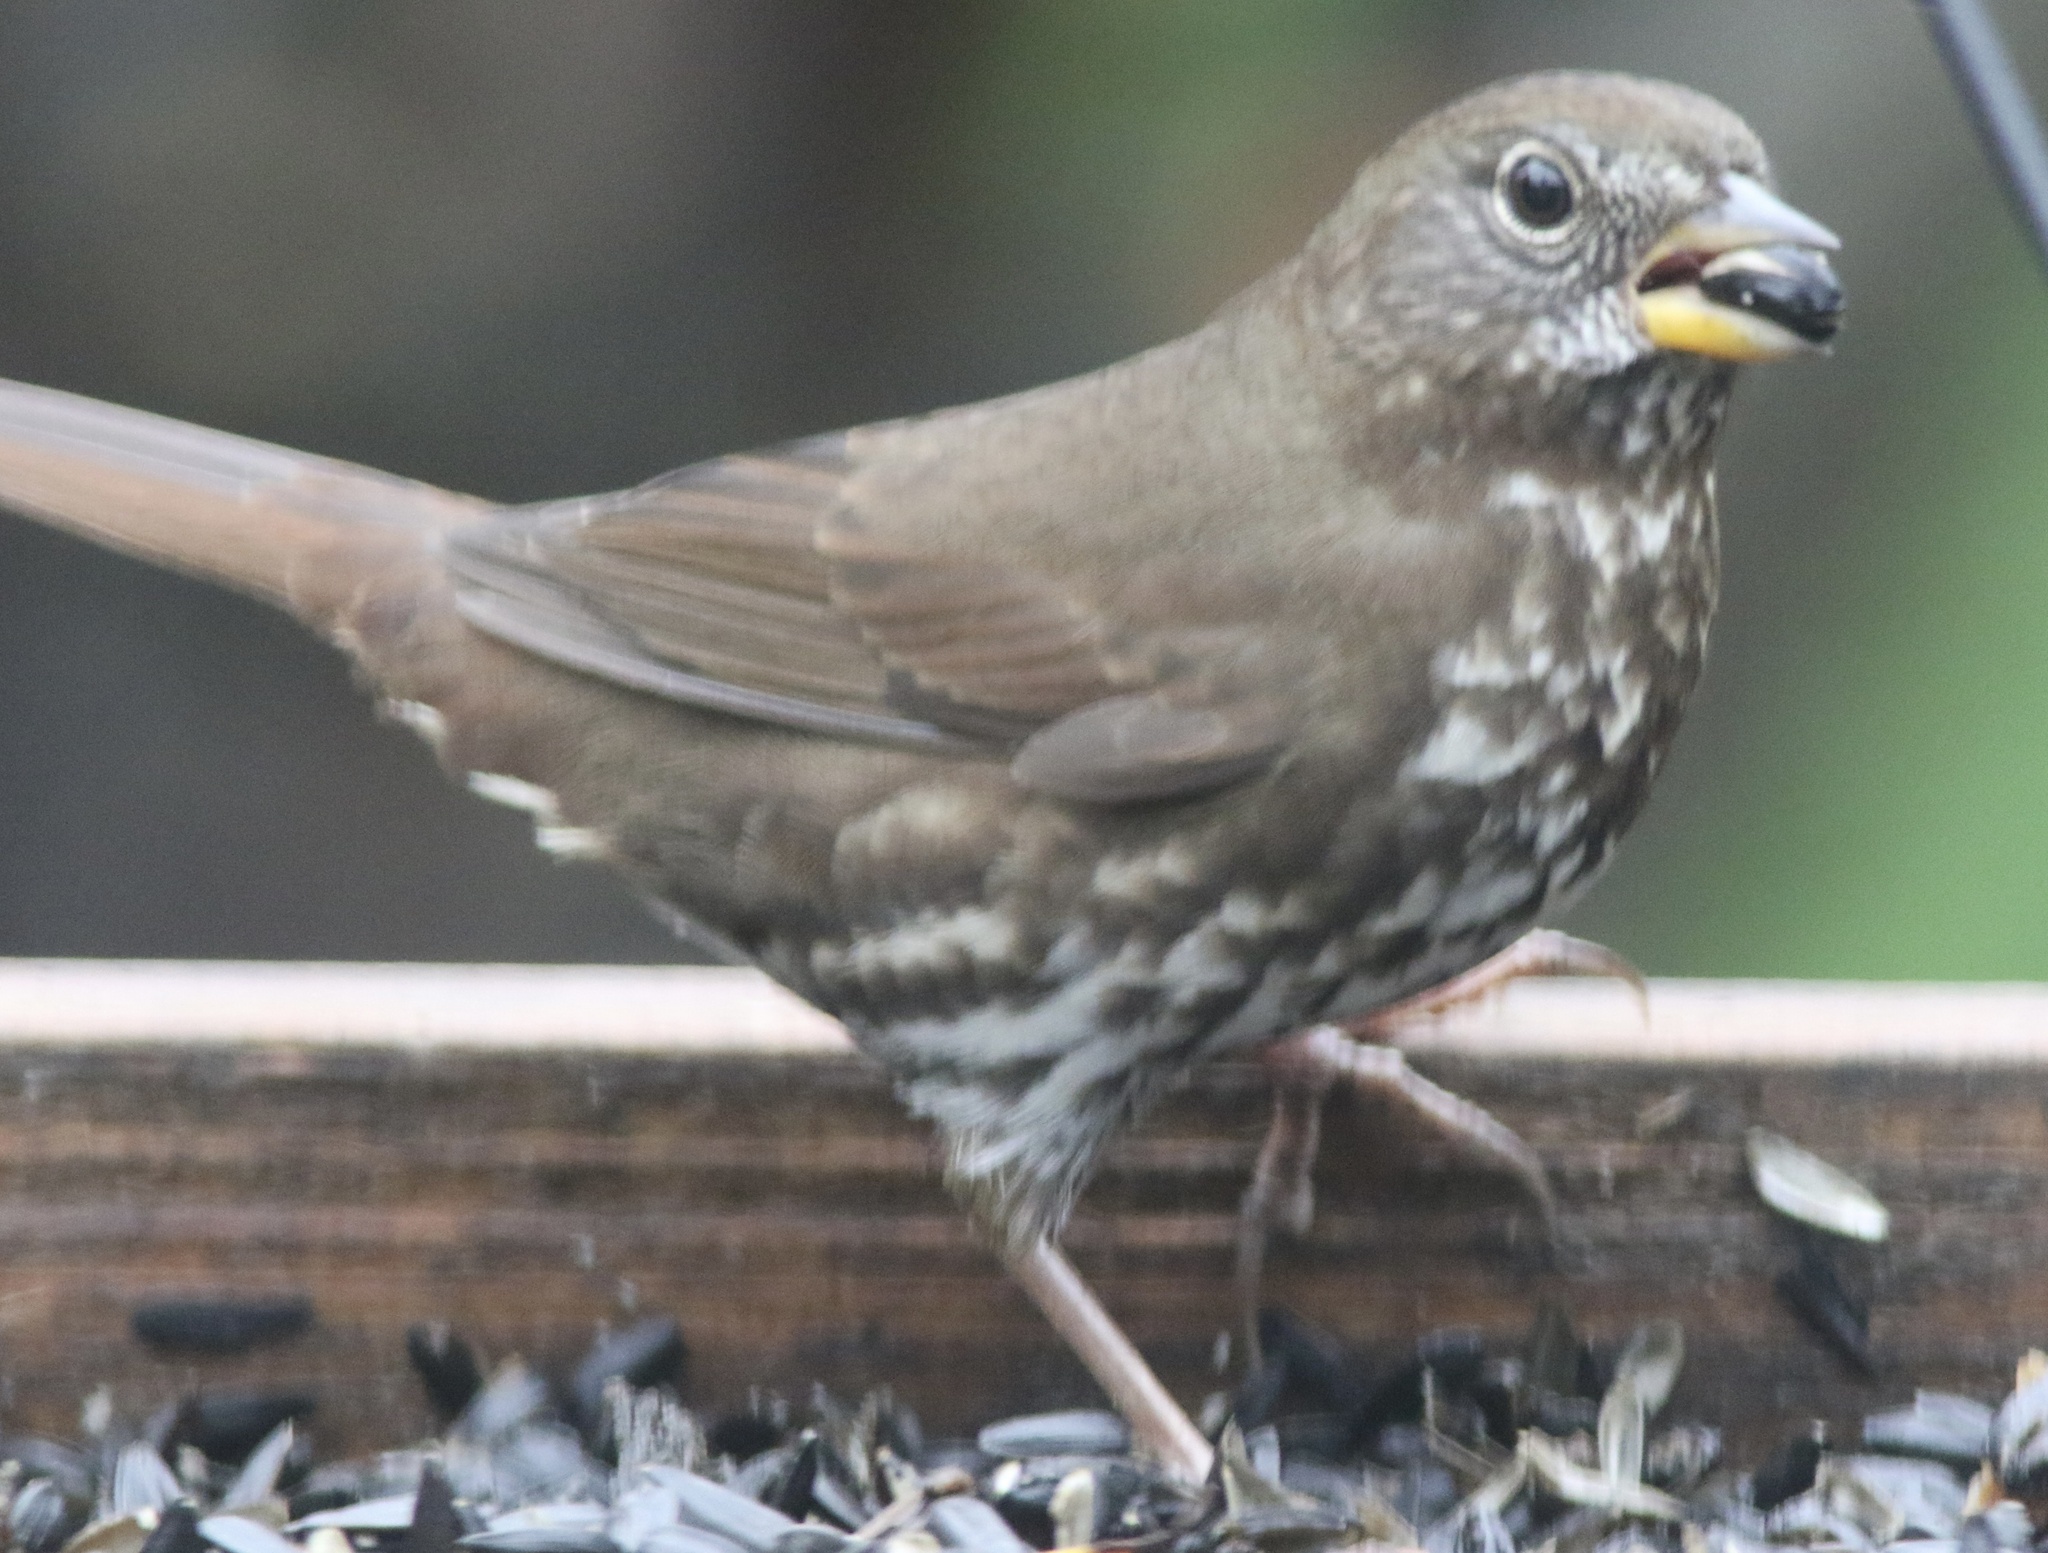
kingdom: Animalia
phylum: Chordata
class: Aves
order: Passeriformes
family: Passerellidae
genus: Passerella
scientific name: Passerella iliaca
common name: Fox sparrow
